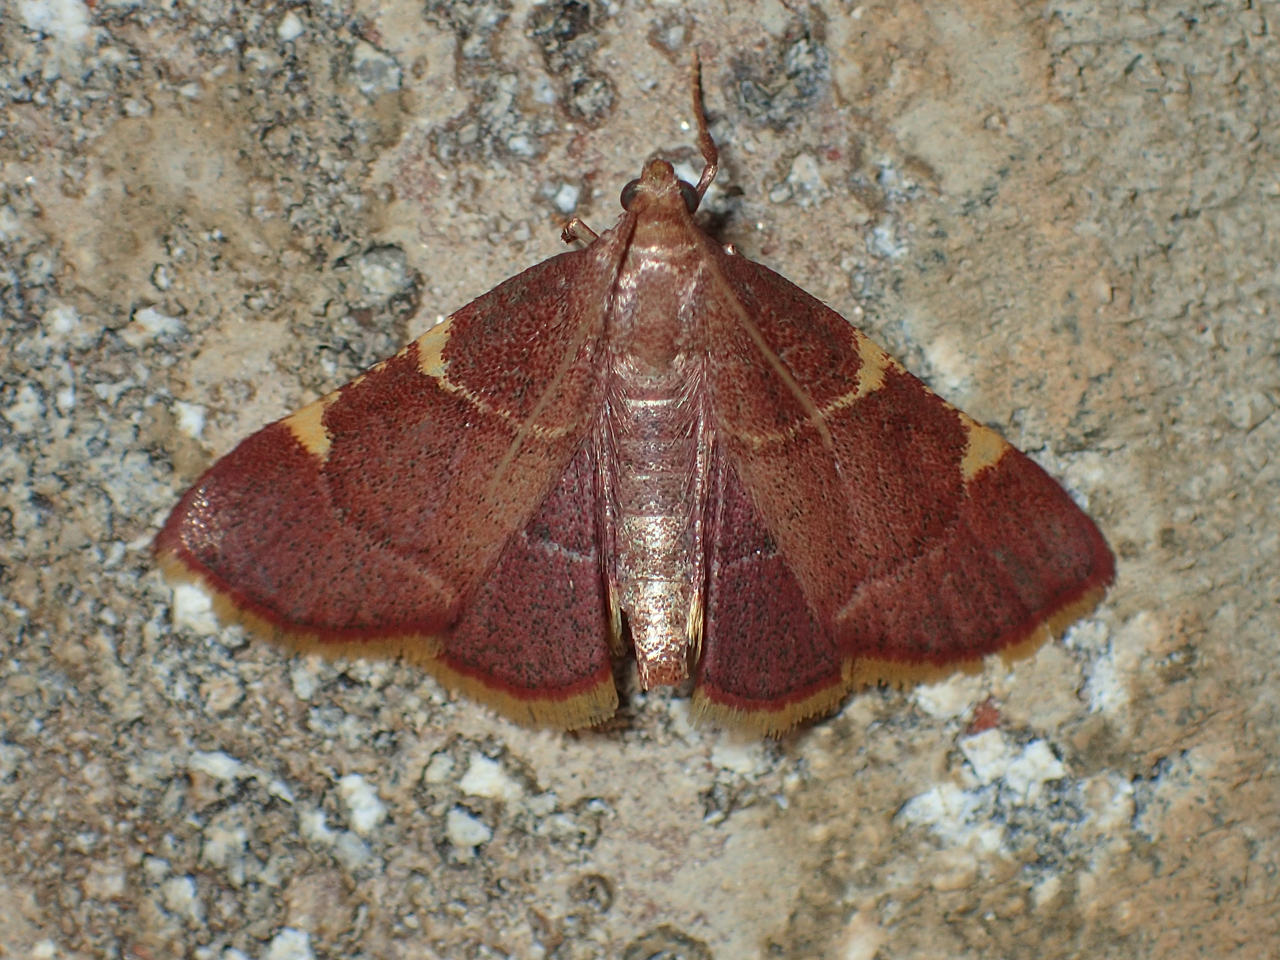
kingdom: Animalia
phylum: Arthropoda
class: Insecta
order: Lepidoptera
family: Pyralidae
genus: Hypsopygia
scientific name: Hypsopygia olinalis
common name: Yellow-fringed dolichomia moth
